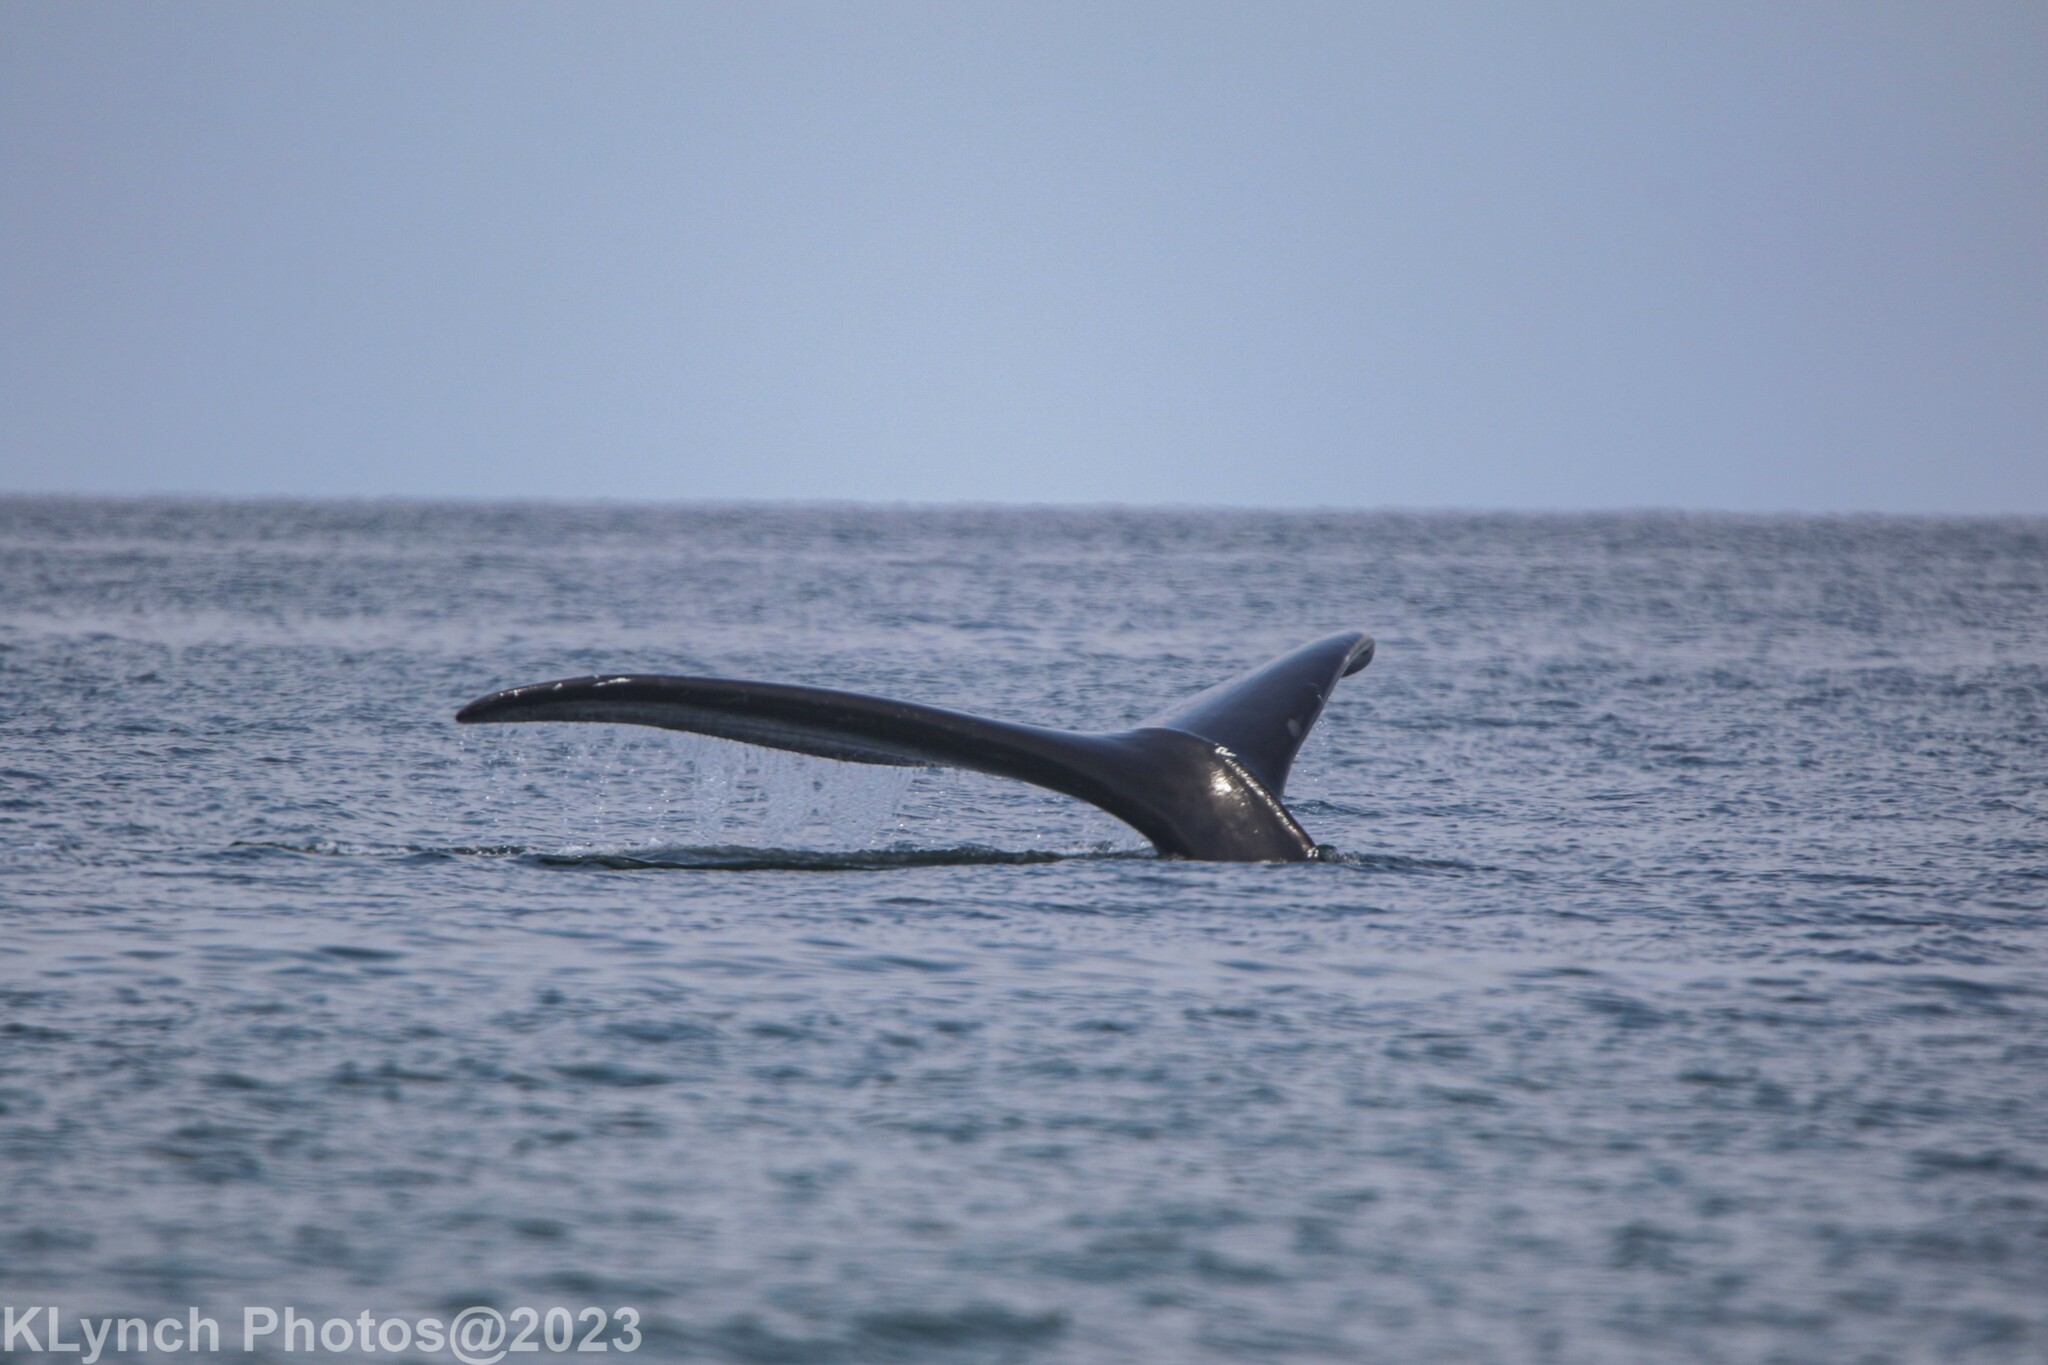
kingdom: Animalia
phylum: Chordata
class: Mammalia
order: Cetacea
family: Balaenidae
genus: Eubalaena
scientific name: Eubalaena glacialis
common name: North atlantic right whale
